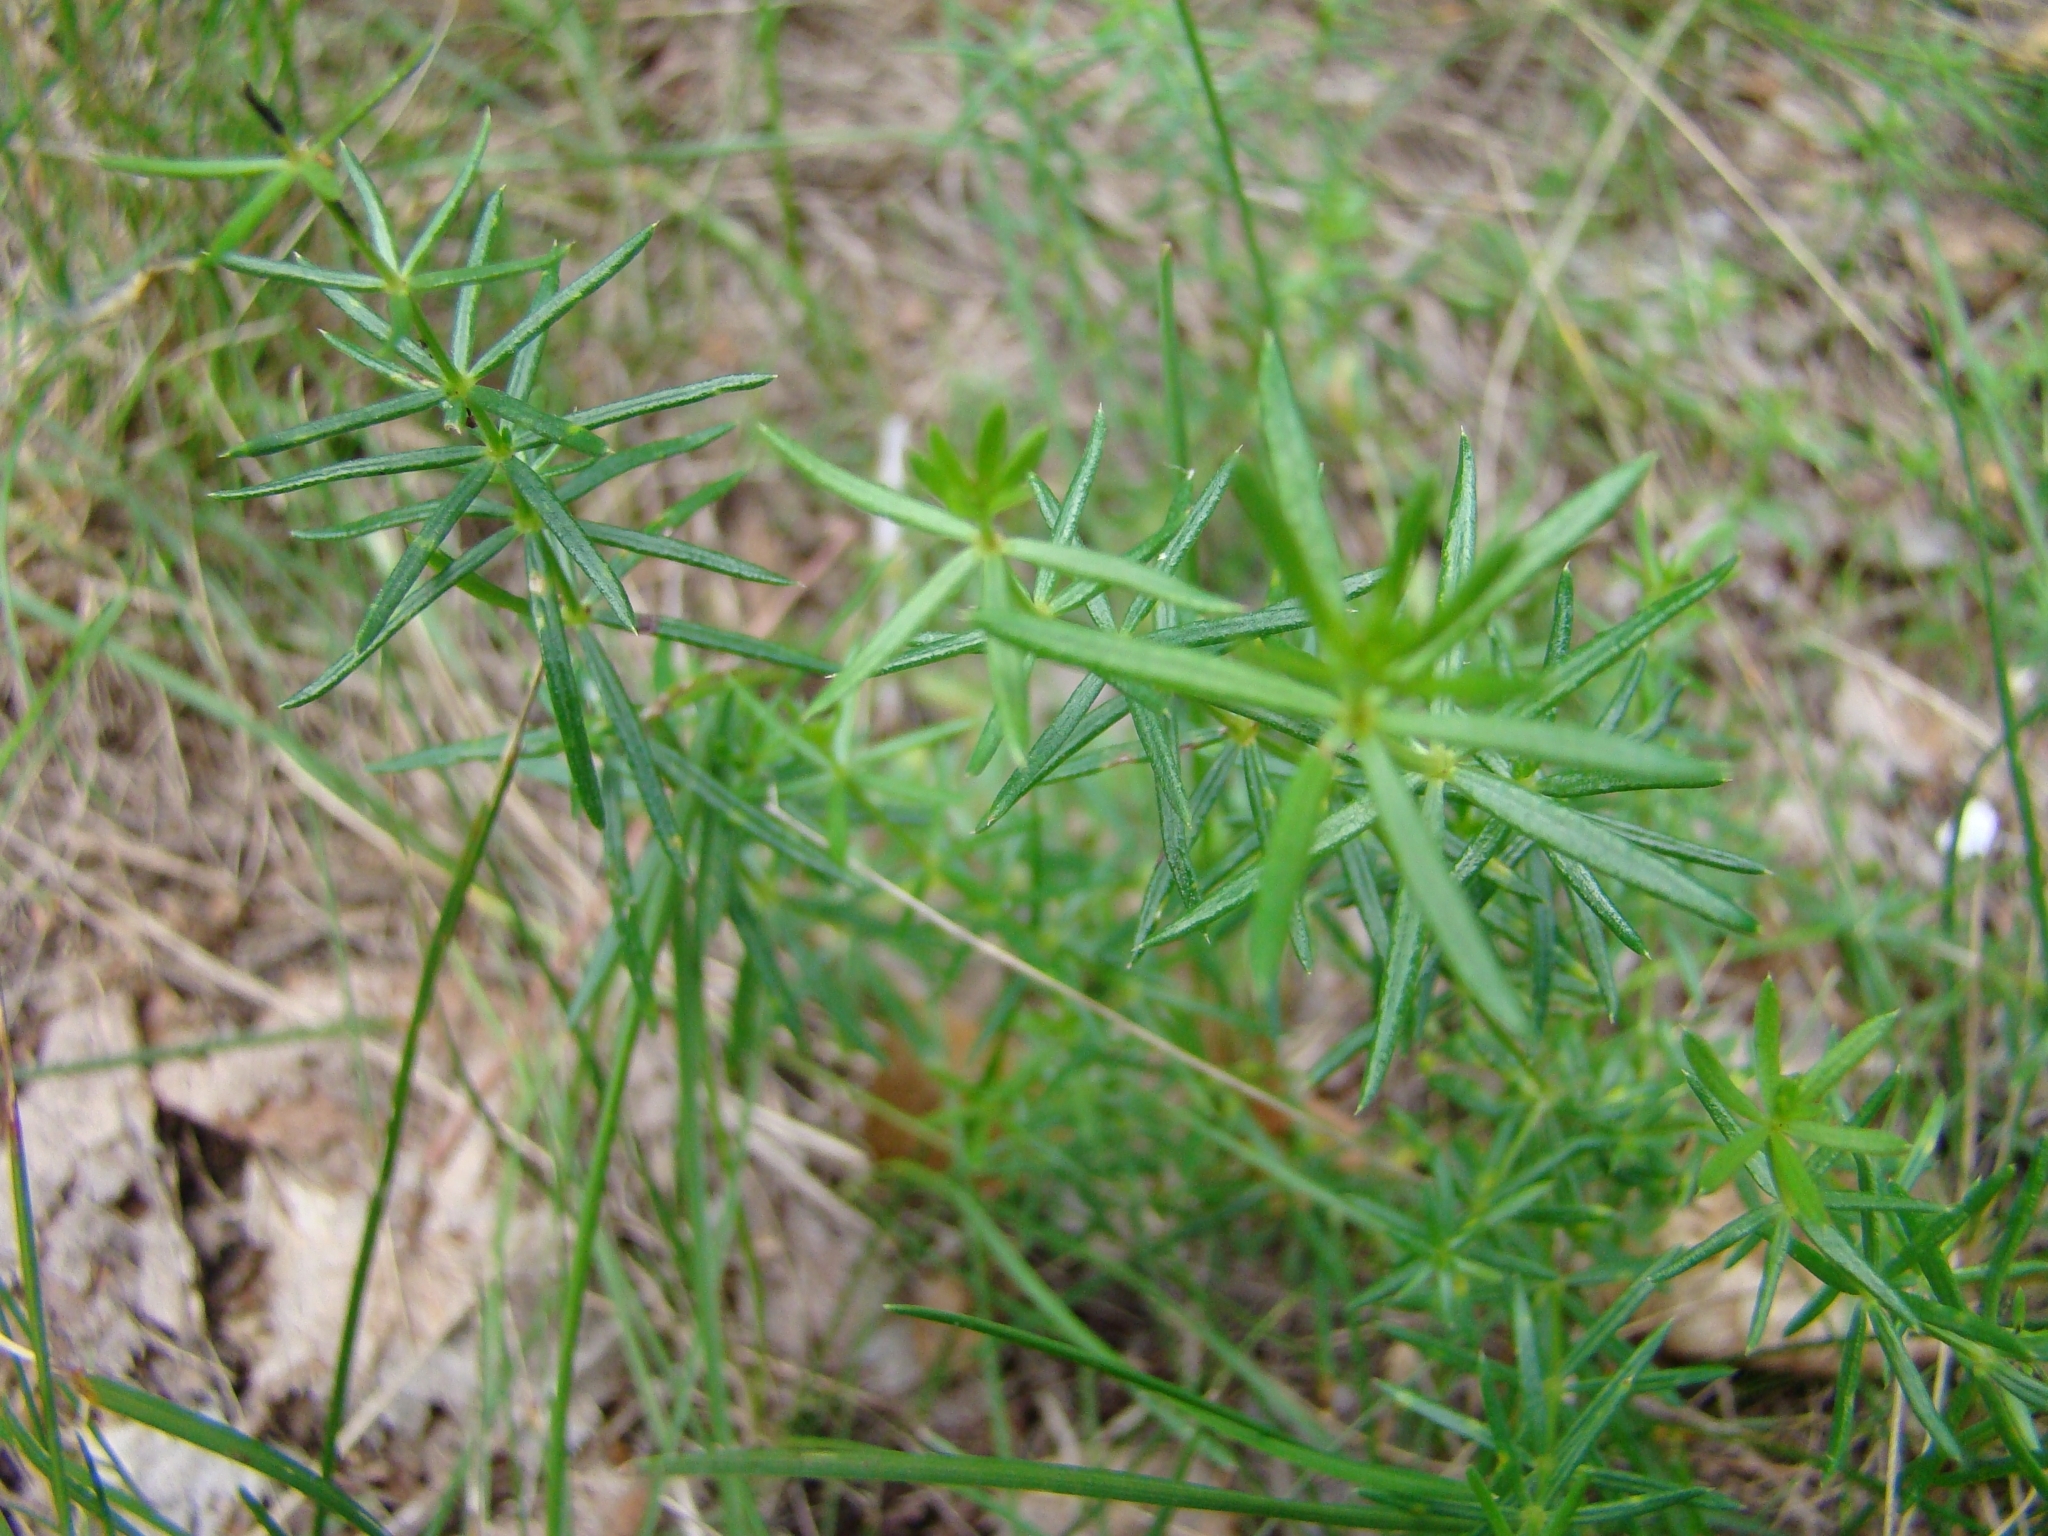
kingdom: Plantae
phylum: Tracheophyta
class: Magnoliopsida
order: Gentianales
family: Rubiaceae
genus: Galium
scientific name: Galium verum
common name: Lady's bedstraw
